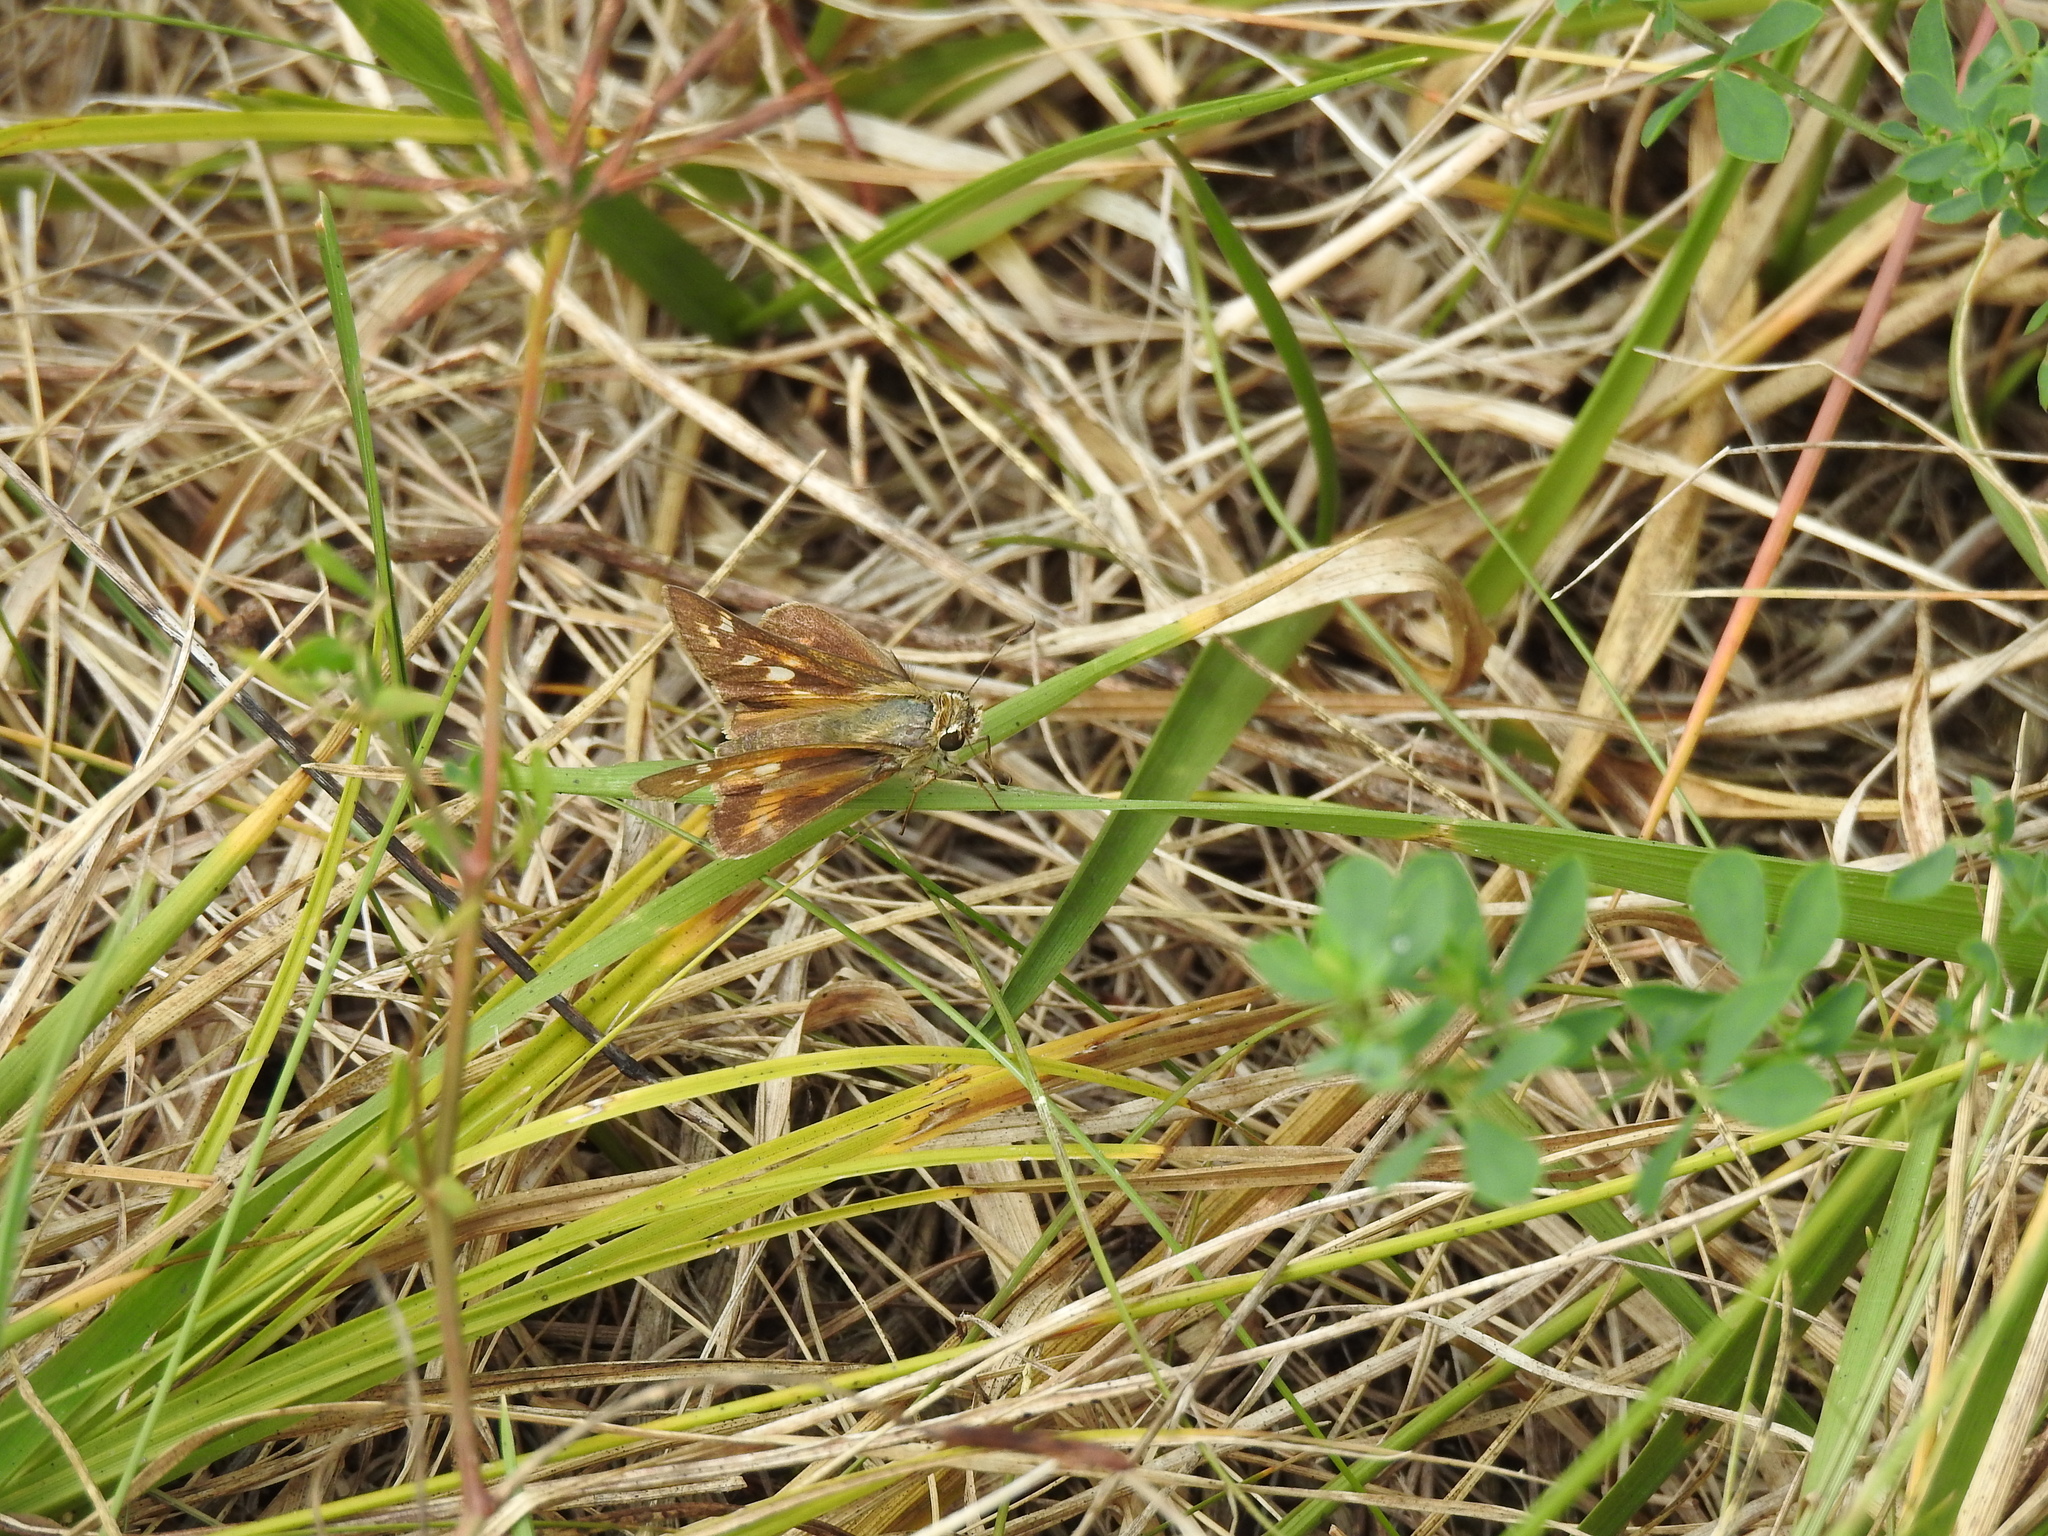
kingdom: Animalia
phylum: Arthropoda
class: Insecta
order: Lepidoptera
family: Hesperiidae
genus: Atalopedes
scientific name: Atalopedes
